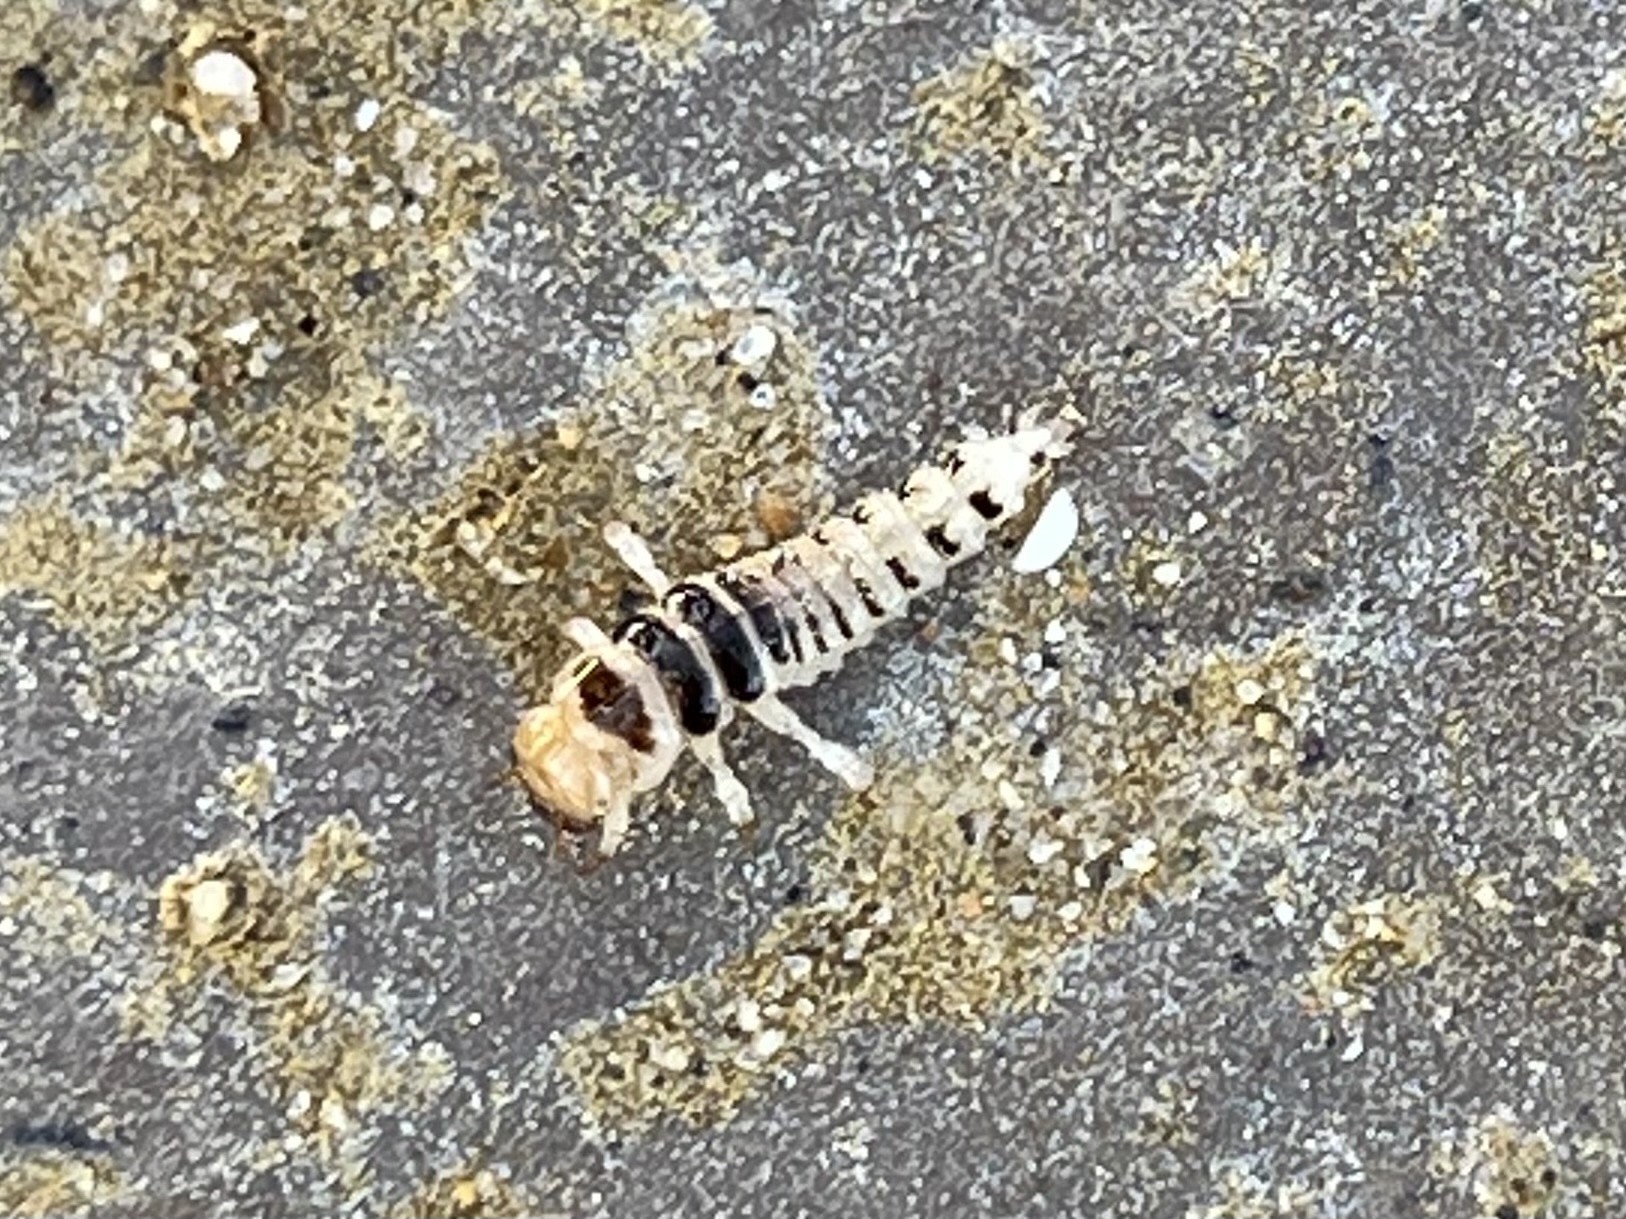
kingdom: Animalia
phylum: Arthropoda
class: Insecta
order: Coleoptera
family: Staphylinidae
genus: Thinopinus
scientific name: Thinopinus pictus
